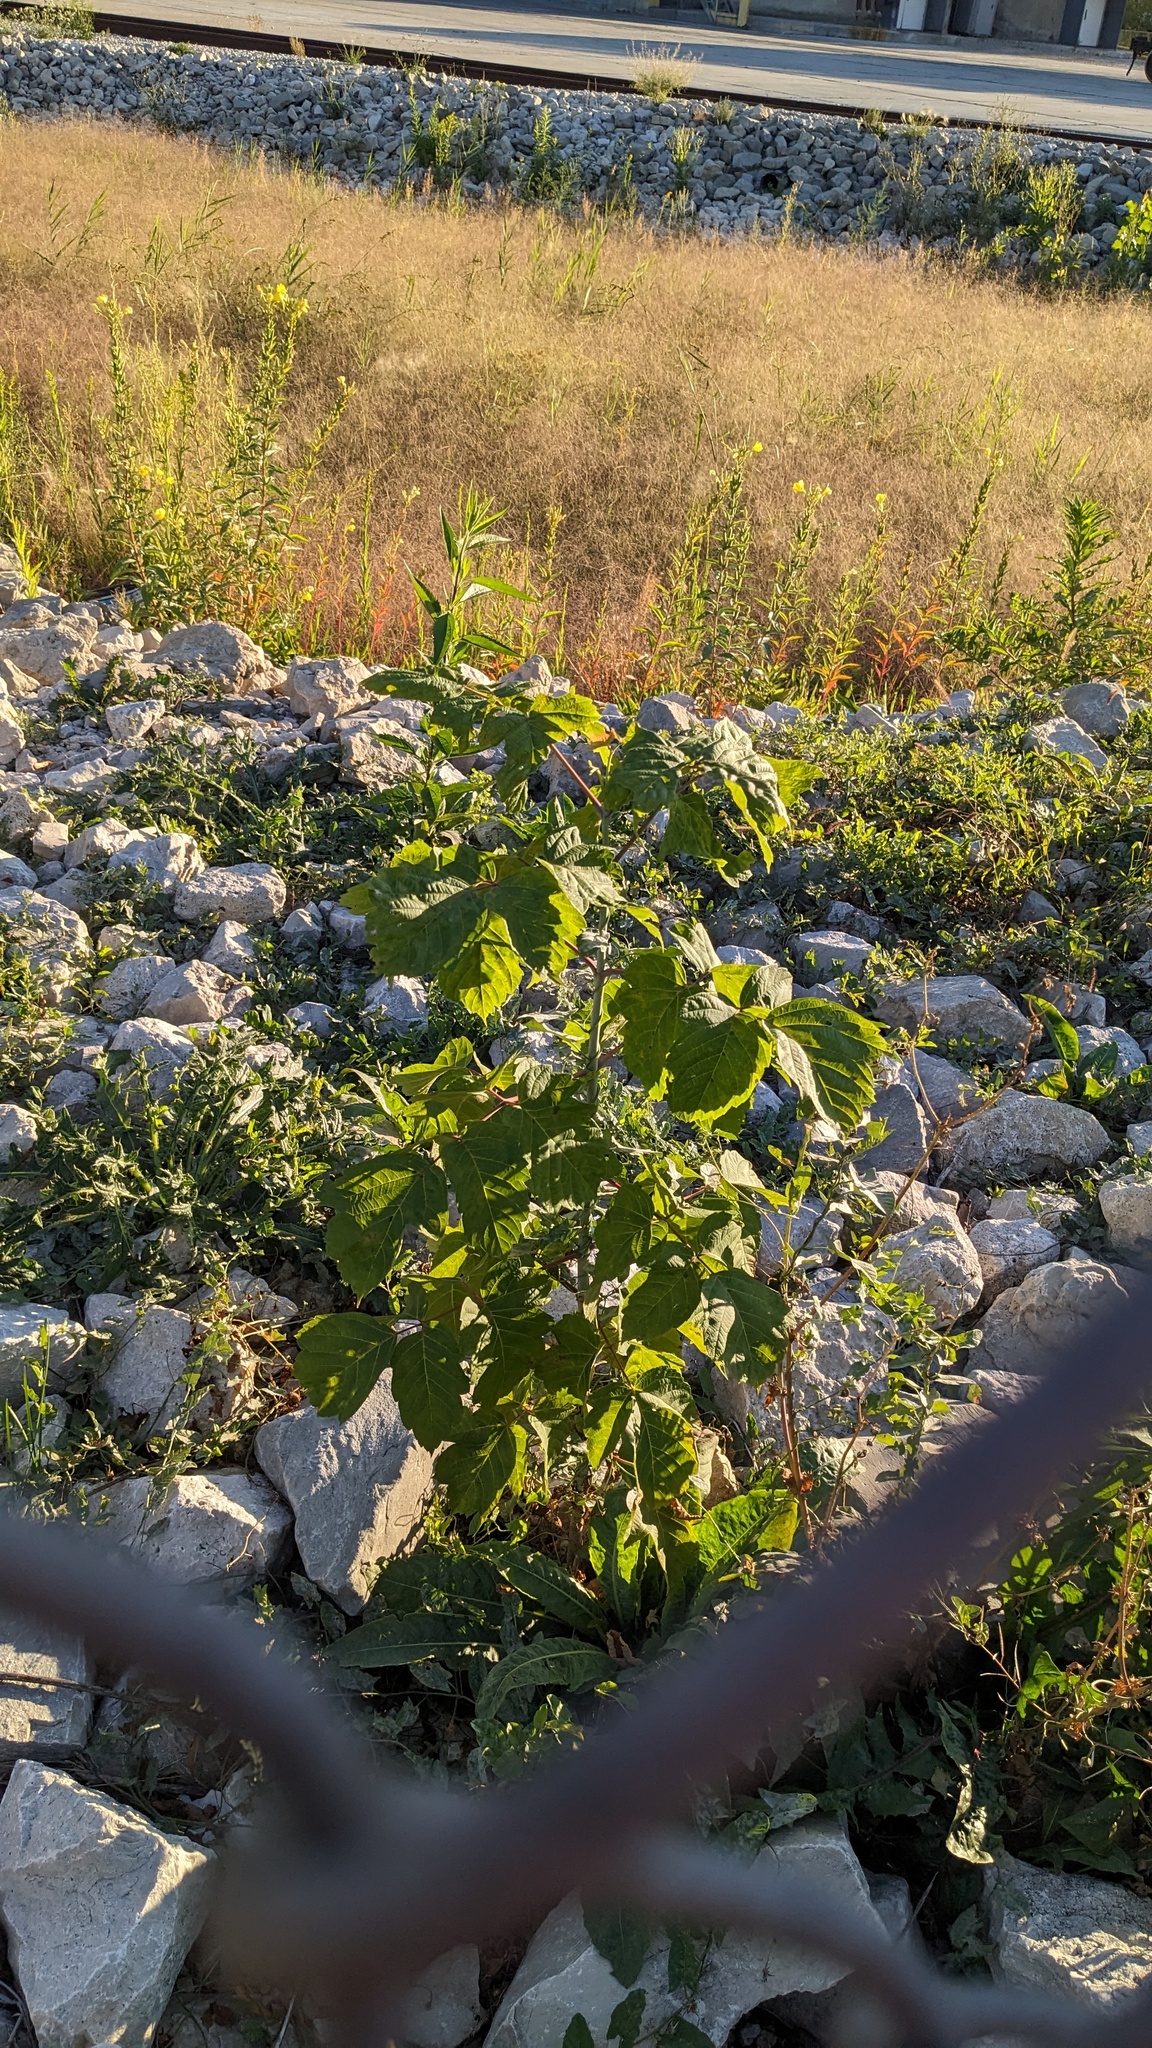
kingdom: Plantae
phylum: Tracheophyta
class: Magnoliopsida
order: Sapindales
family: Sapindaceae
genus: Acer
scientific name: Acer negundo
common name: Ashleaf maple
